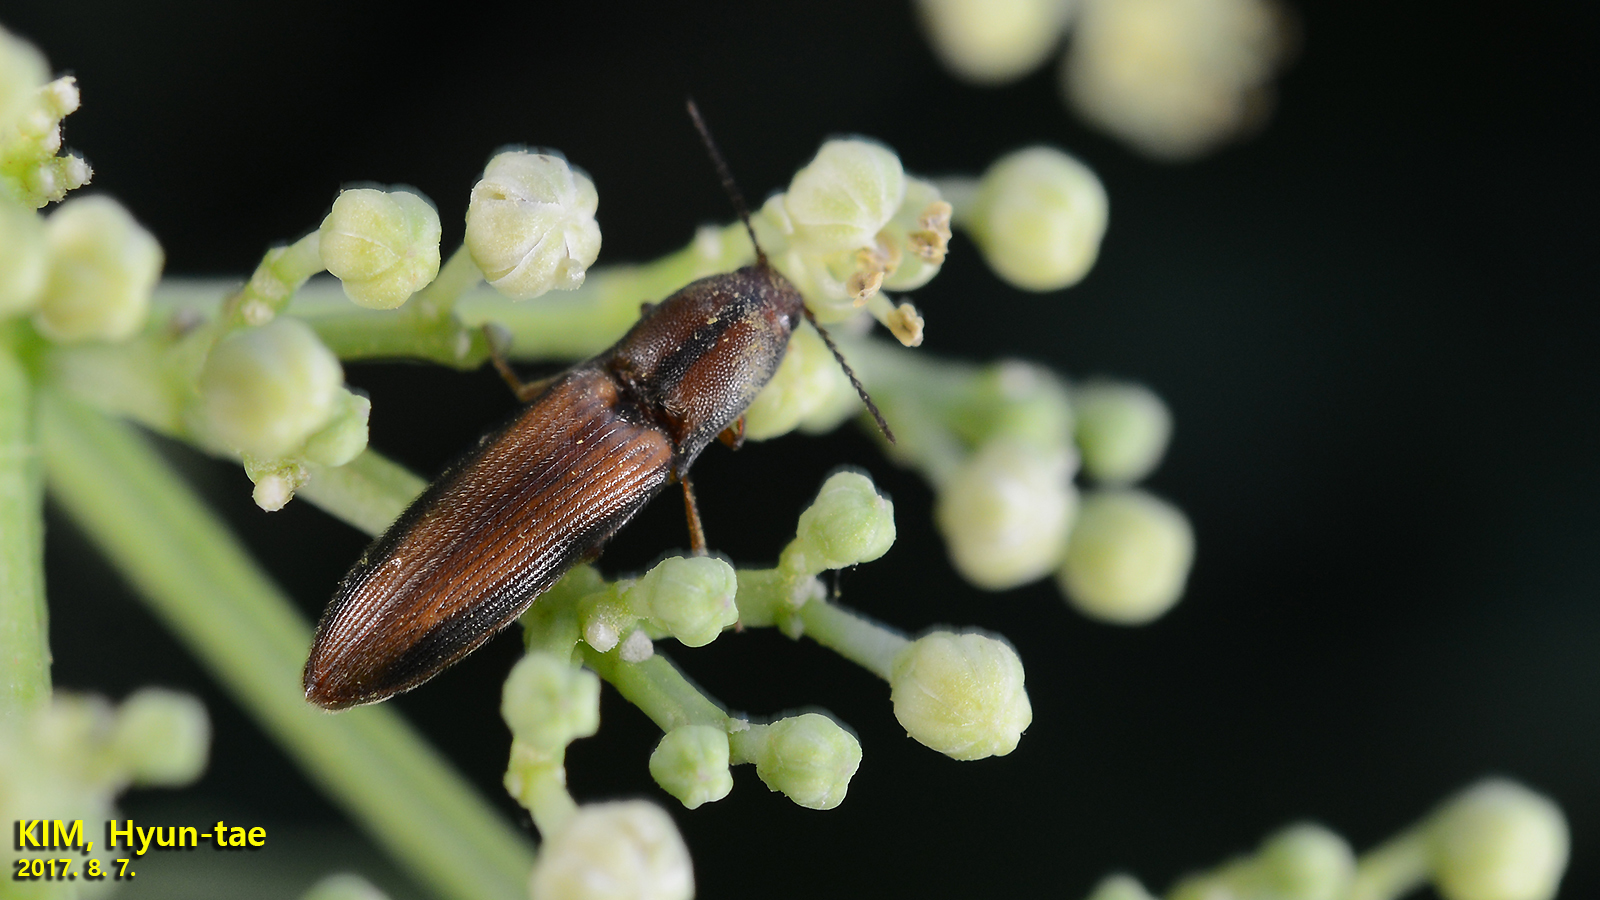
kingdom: Animalia
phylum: Arthropoda
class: Insecta
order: Coleoptera
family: Elateridae
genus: Ludioschema
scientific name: Ludioschema vittiger
